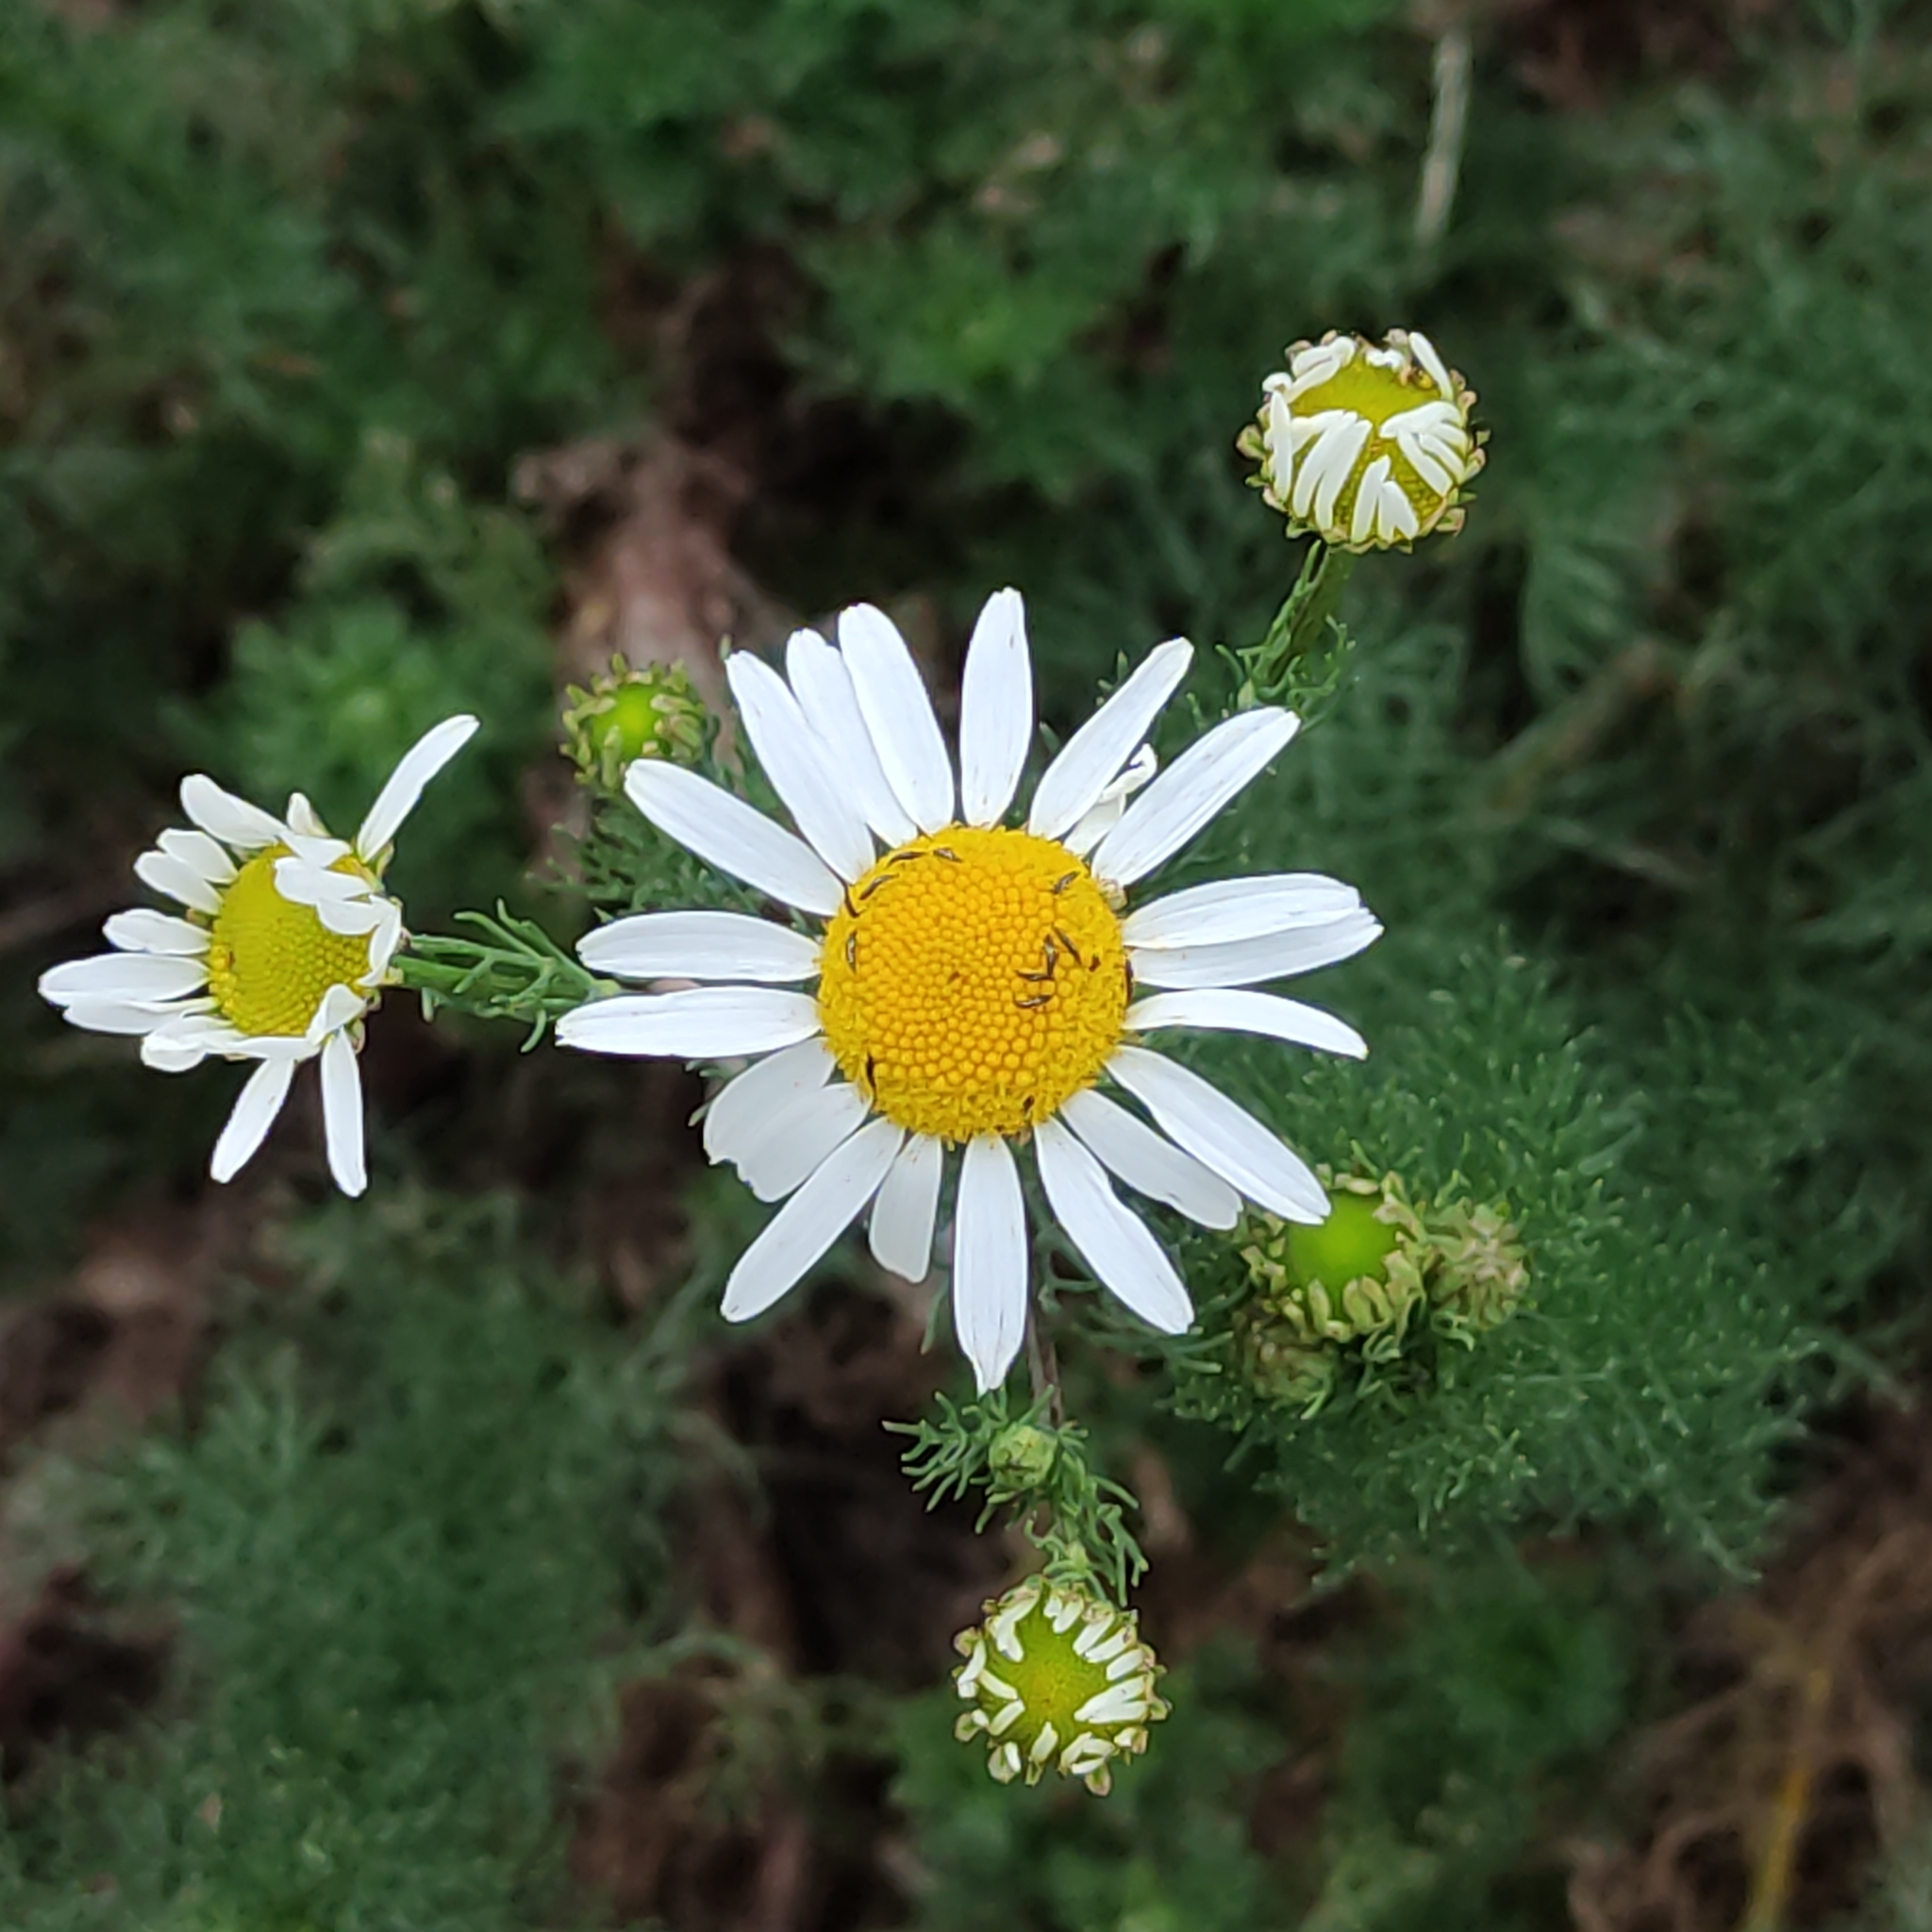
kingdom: Plantae
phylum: Tracheophyta
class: Magnoliopsida
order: Asterales
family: Asteraceae
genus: Tripleurospermum
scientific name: Tripleurospermum inodorum
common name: Scentless mayweed
